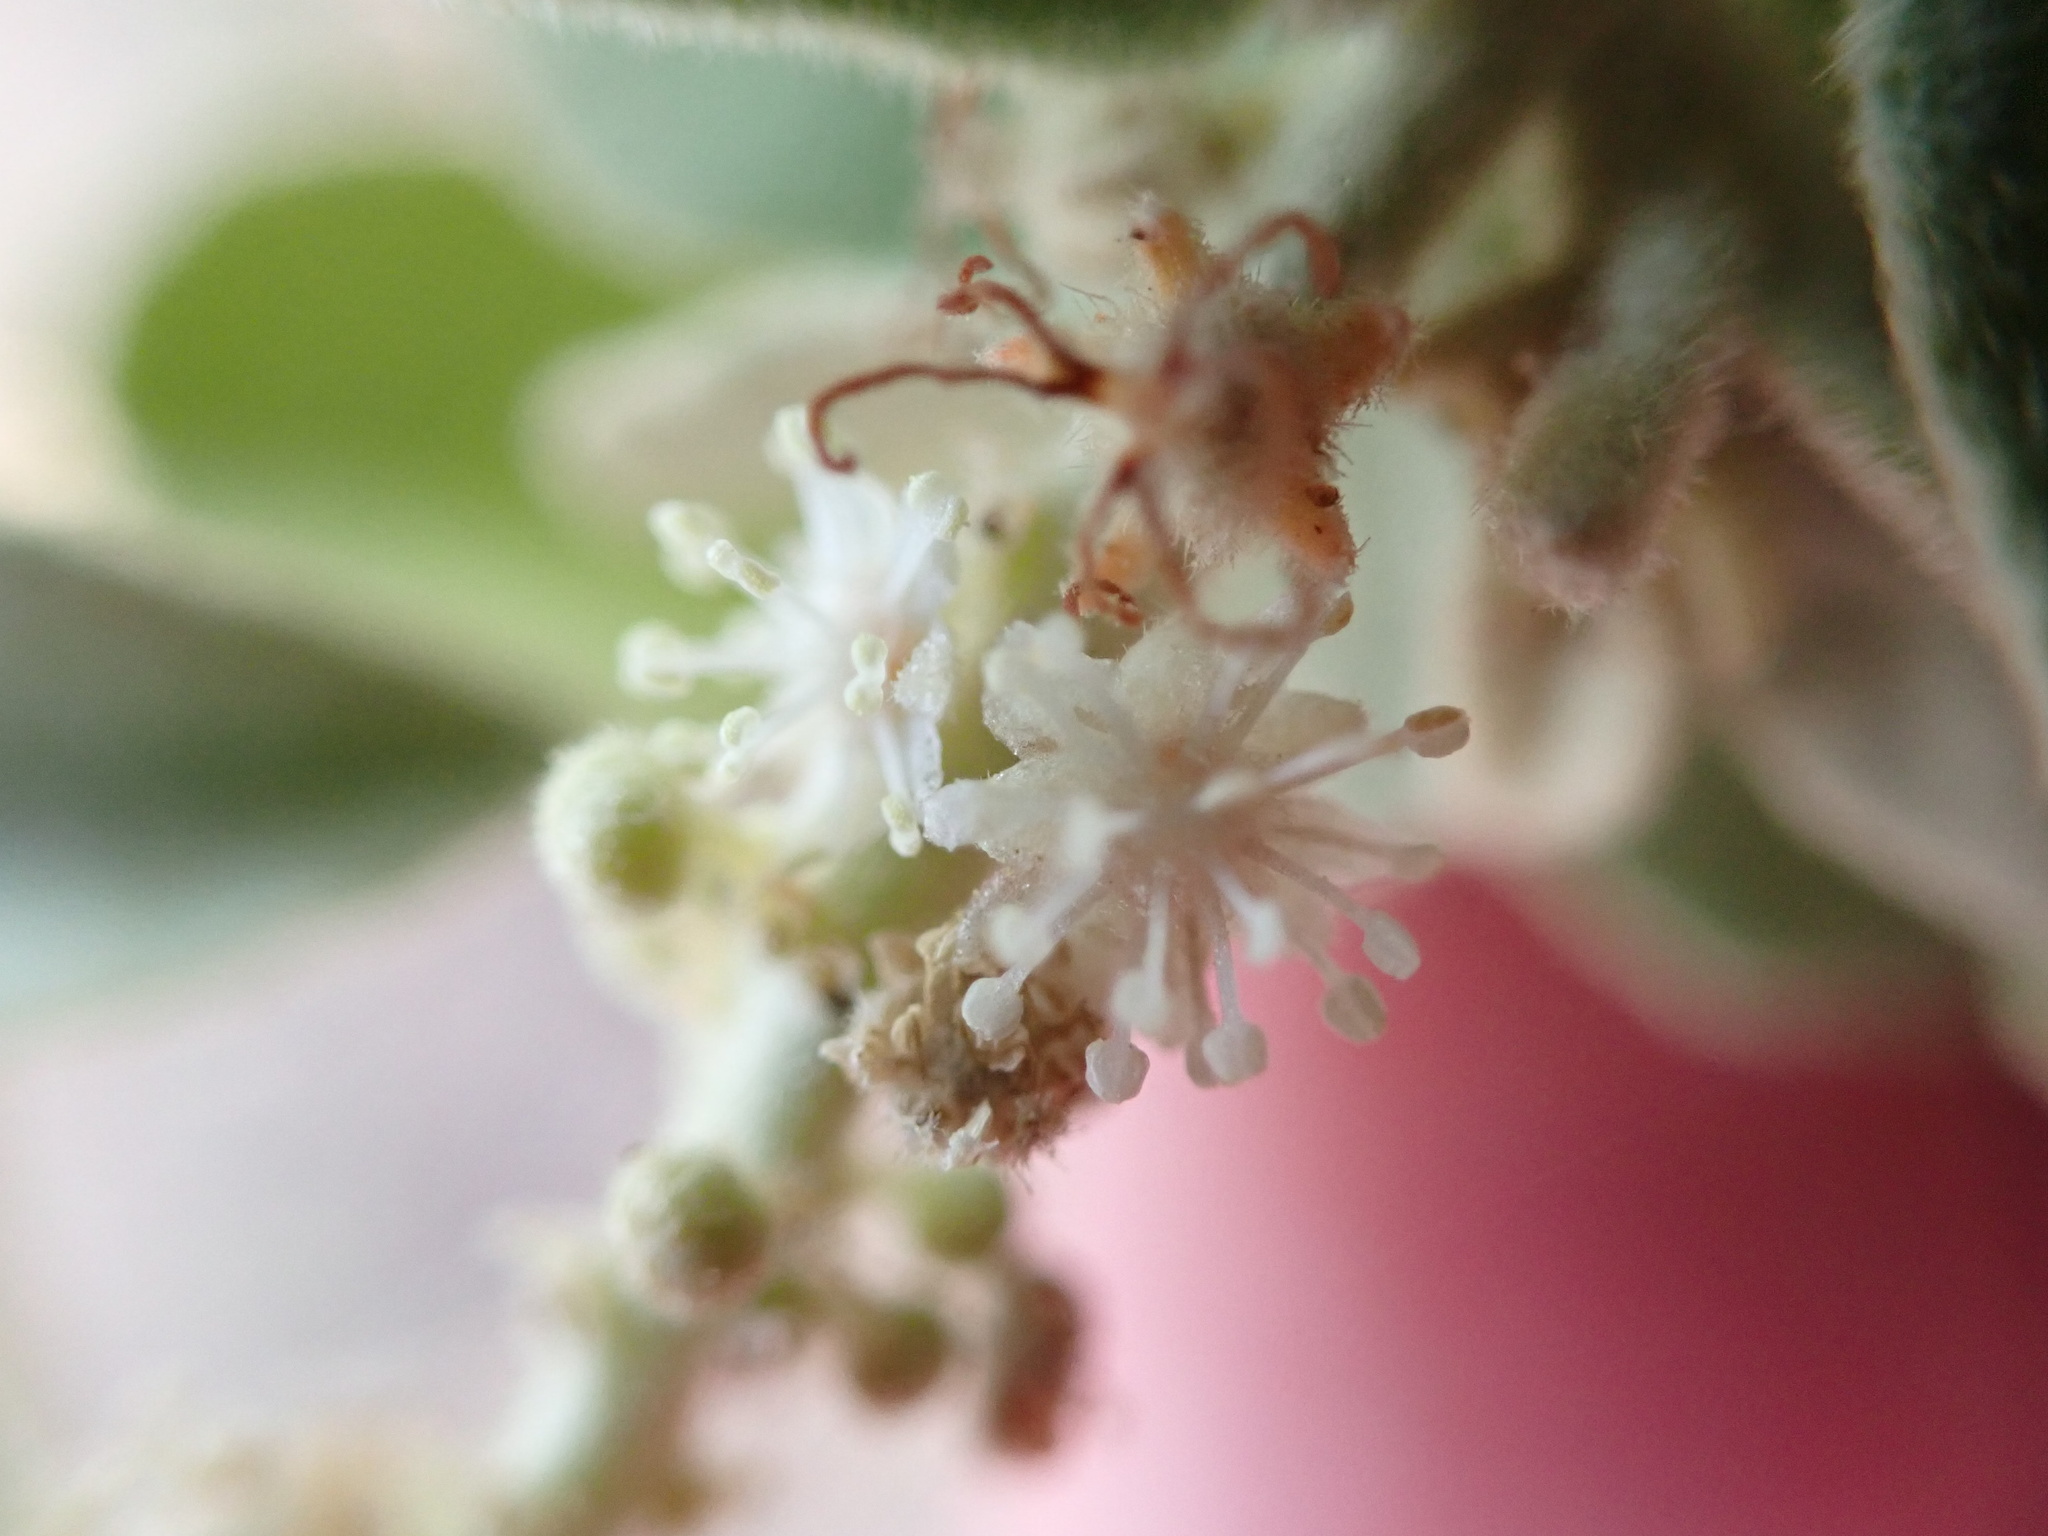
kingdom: Plantae
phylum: Tracheophyta
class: Magnoliopsida
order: Malpighiales
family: Euphorbiaceae
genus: Croton
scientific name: Croton conduplicatus
